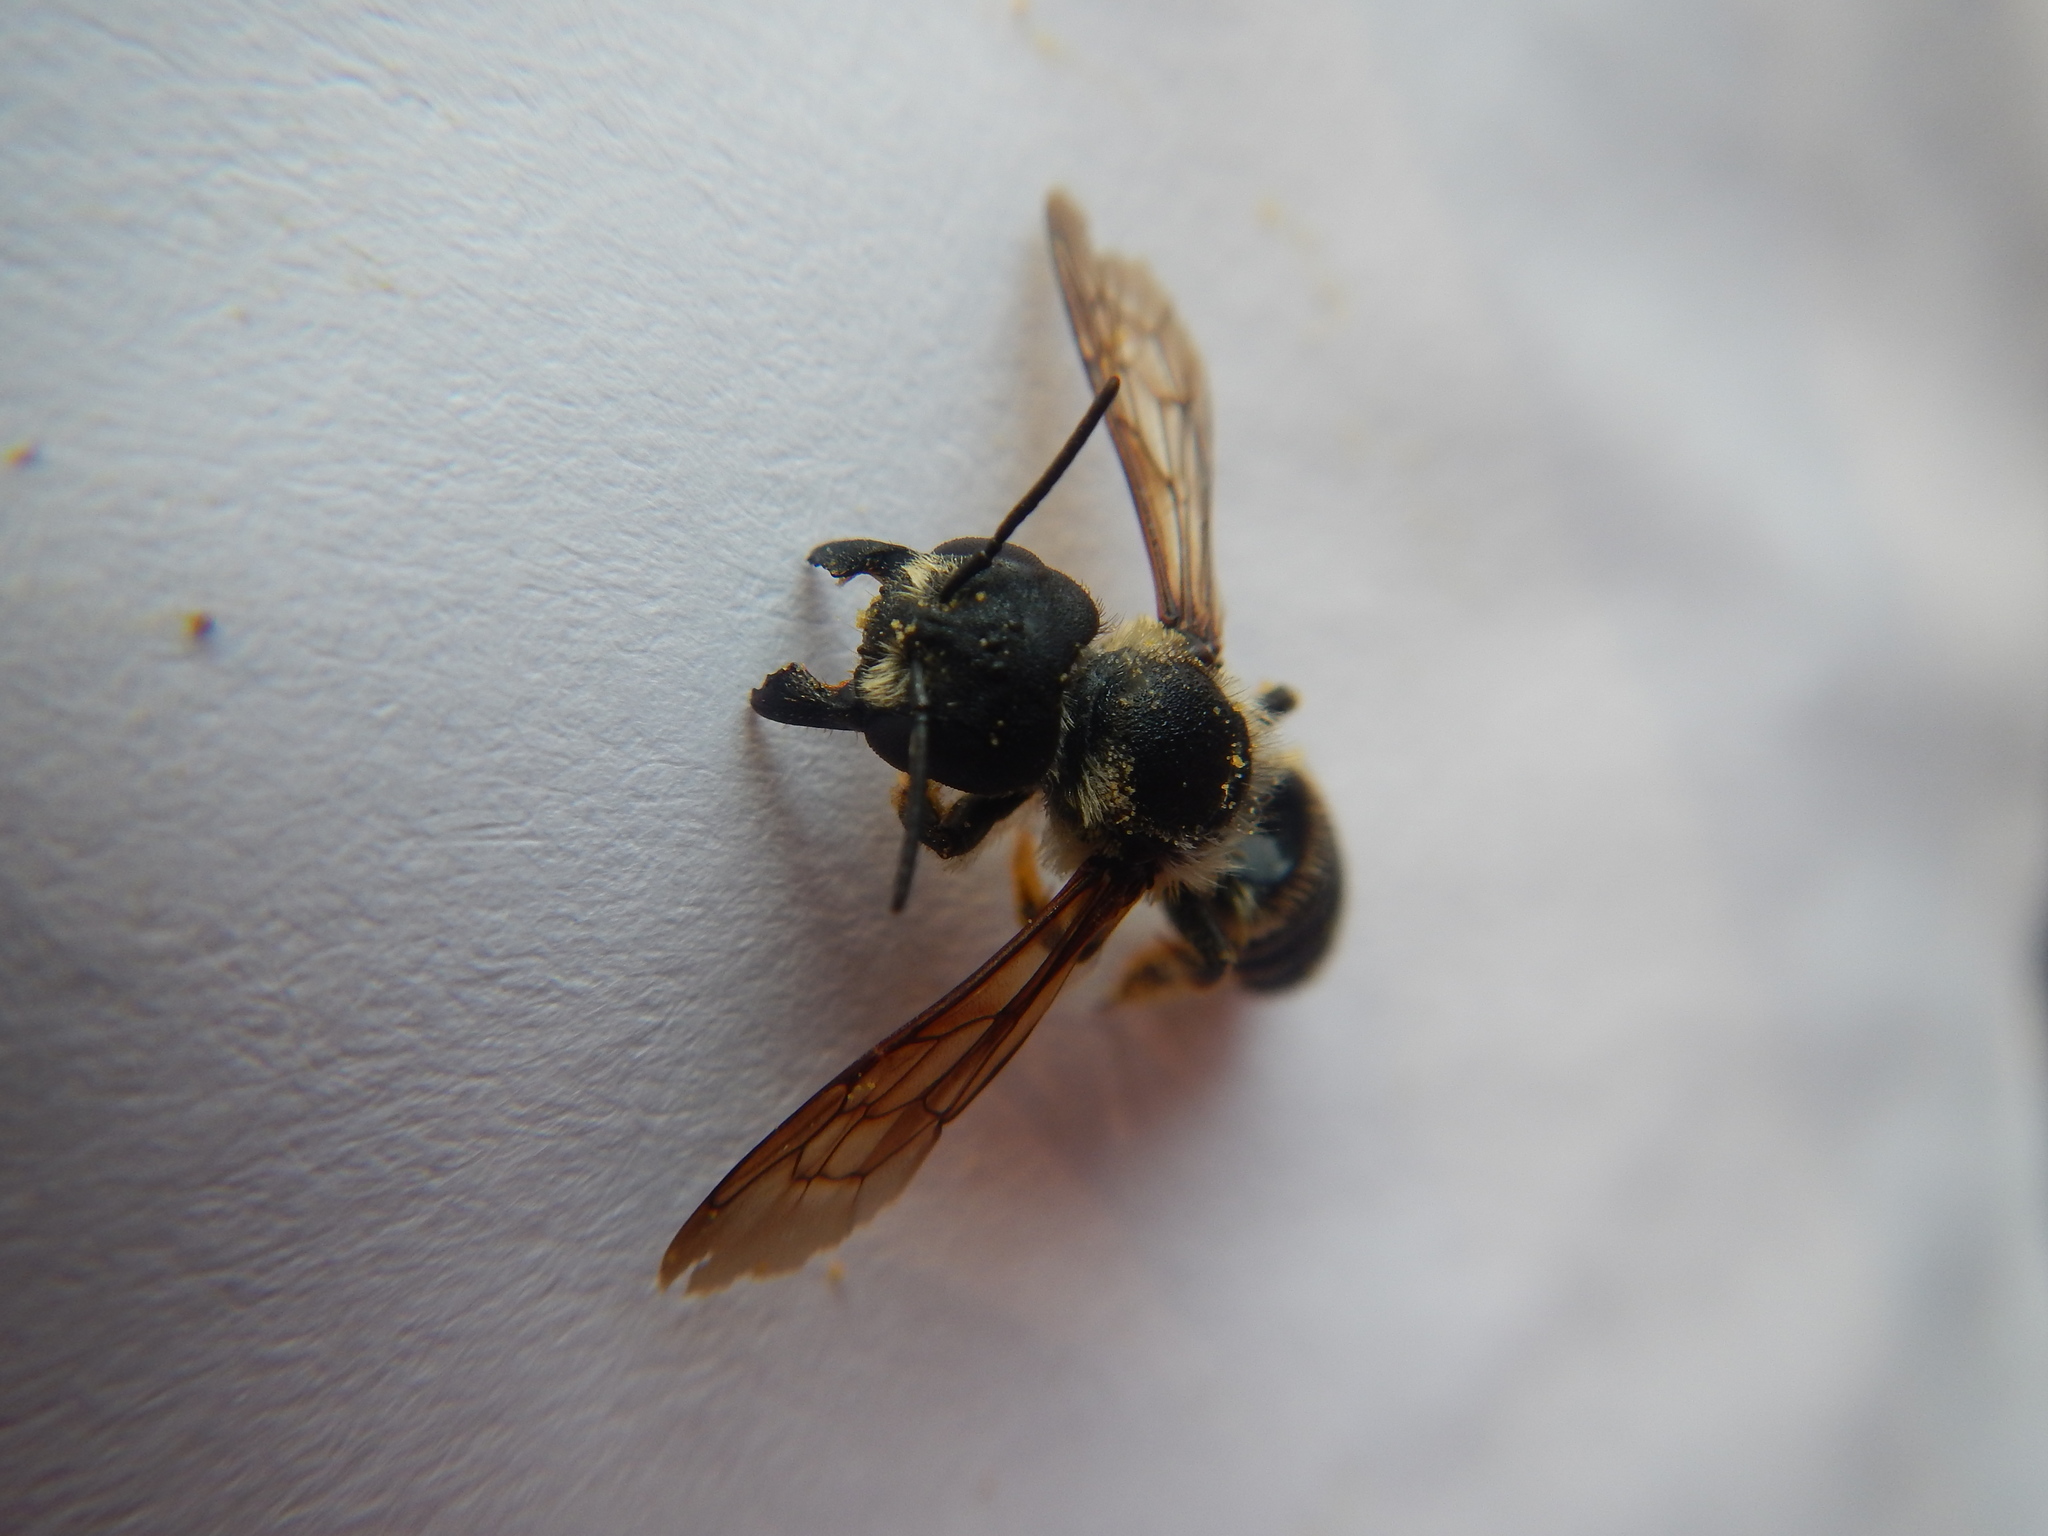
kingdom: Animalia
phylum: Arthropoda
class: Insecta
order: Hymenoptera
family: Megachilidae
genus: Megachile
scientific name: Megachile pugnata
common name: Pugnacious leafcutter bee
